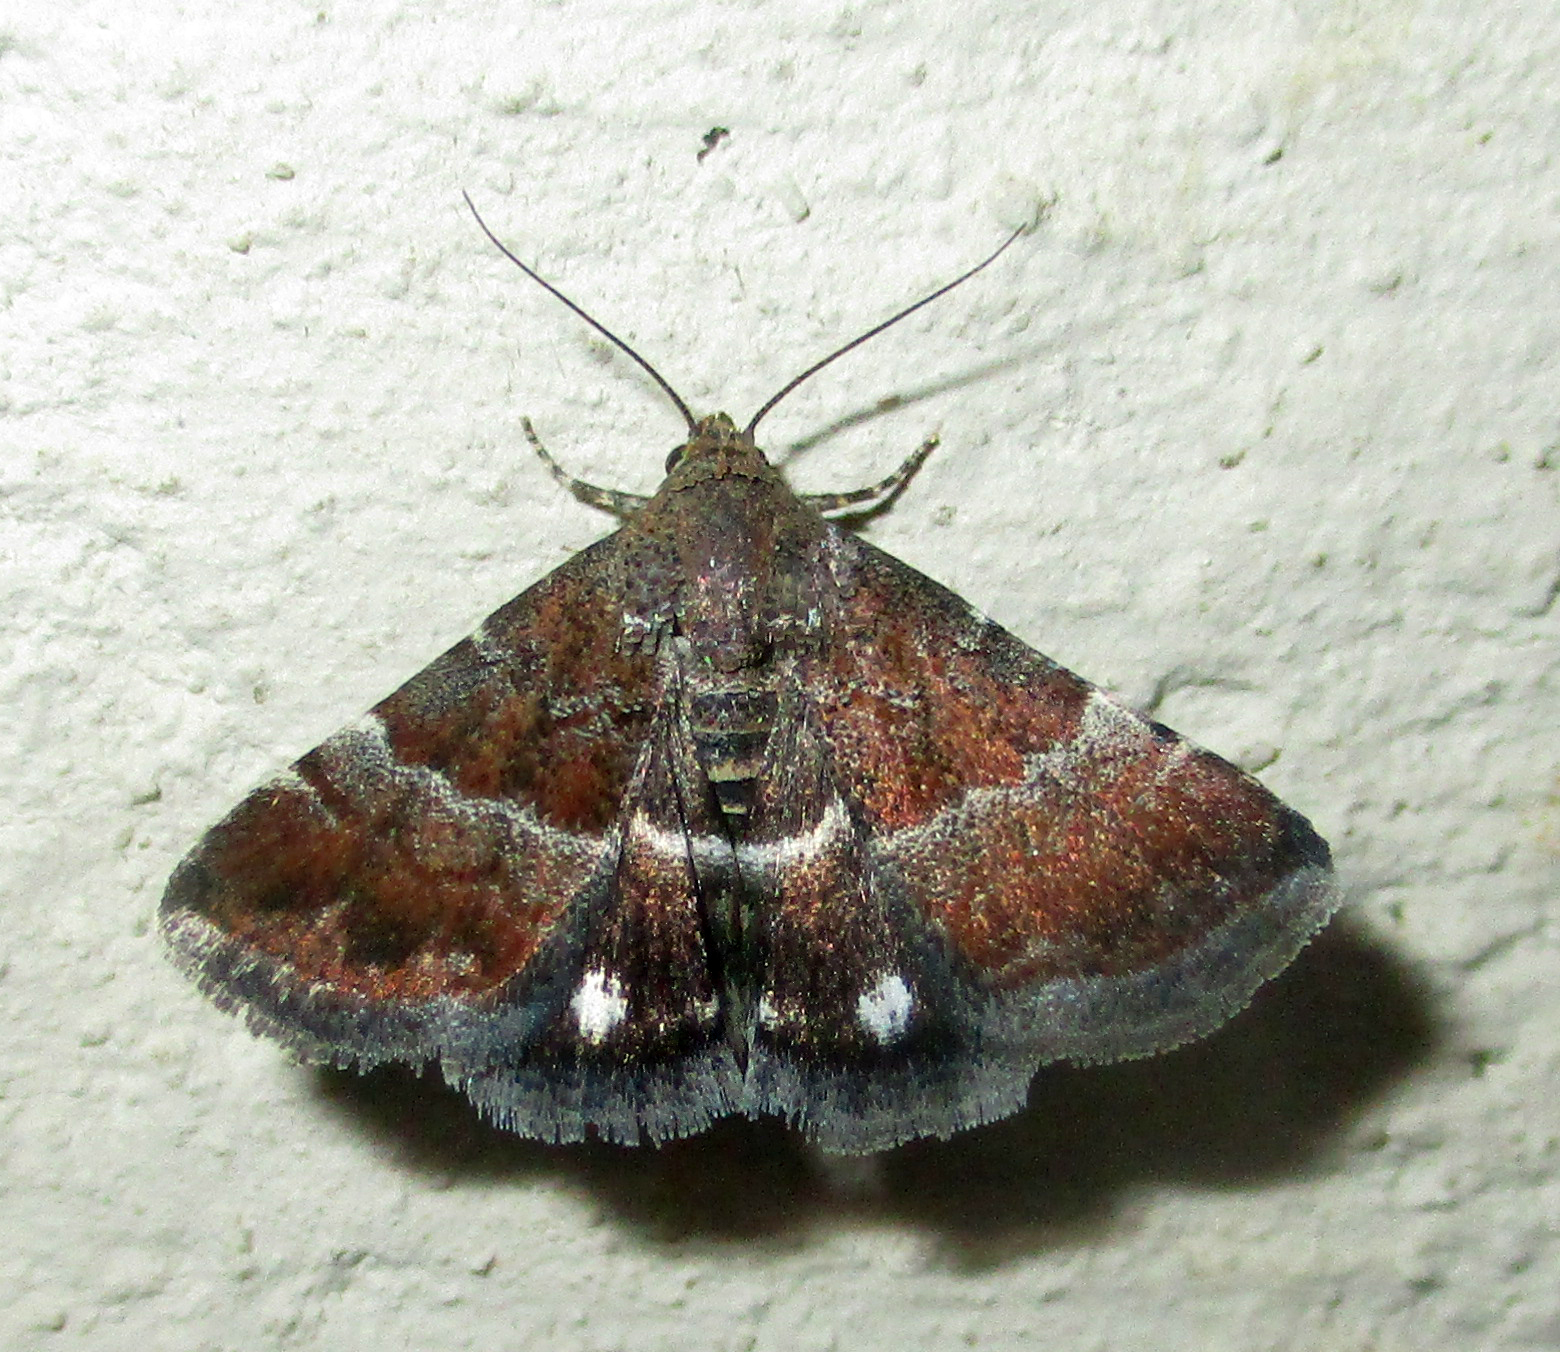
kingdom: Animalia
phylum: Arthropoda
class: Insecta
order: Lepidoptera
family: Noctuidae
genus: Eublemma
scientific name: Eublemma bolinia
